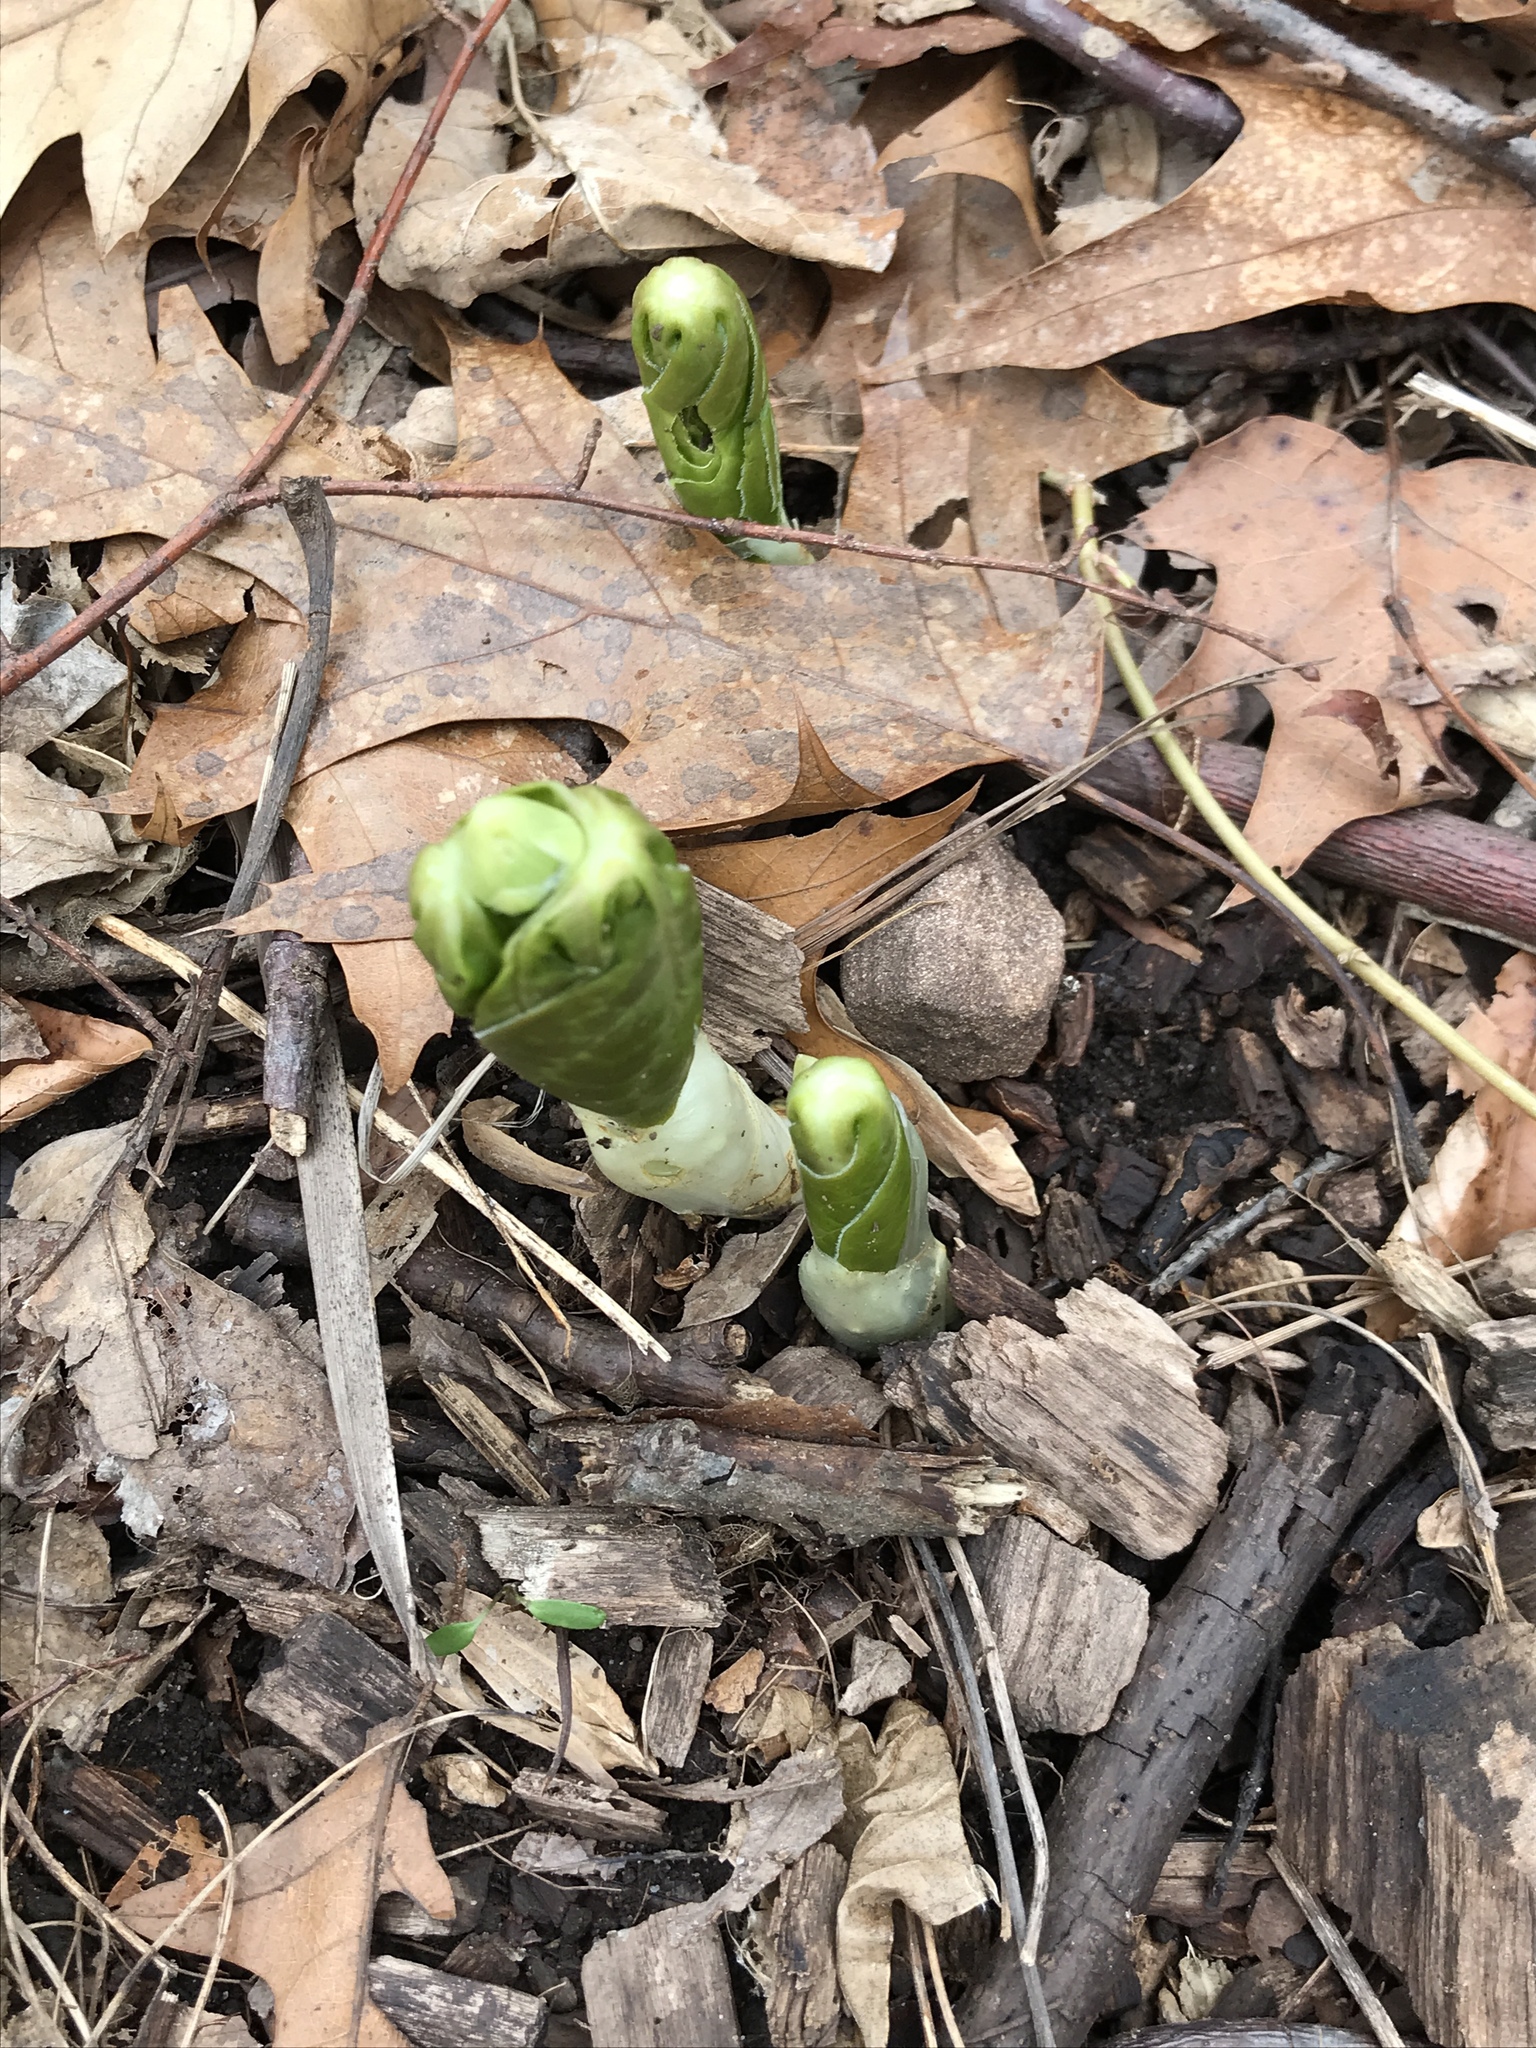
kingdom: Plantae
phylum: Tracheophyta
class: Magnoliopsida
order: Ranunculales
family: Berberidaceae
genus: Podophyllum
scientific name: Podophyllum peltatum
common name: Wild mandrake
